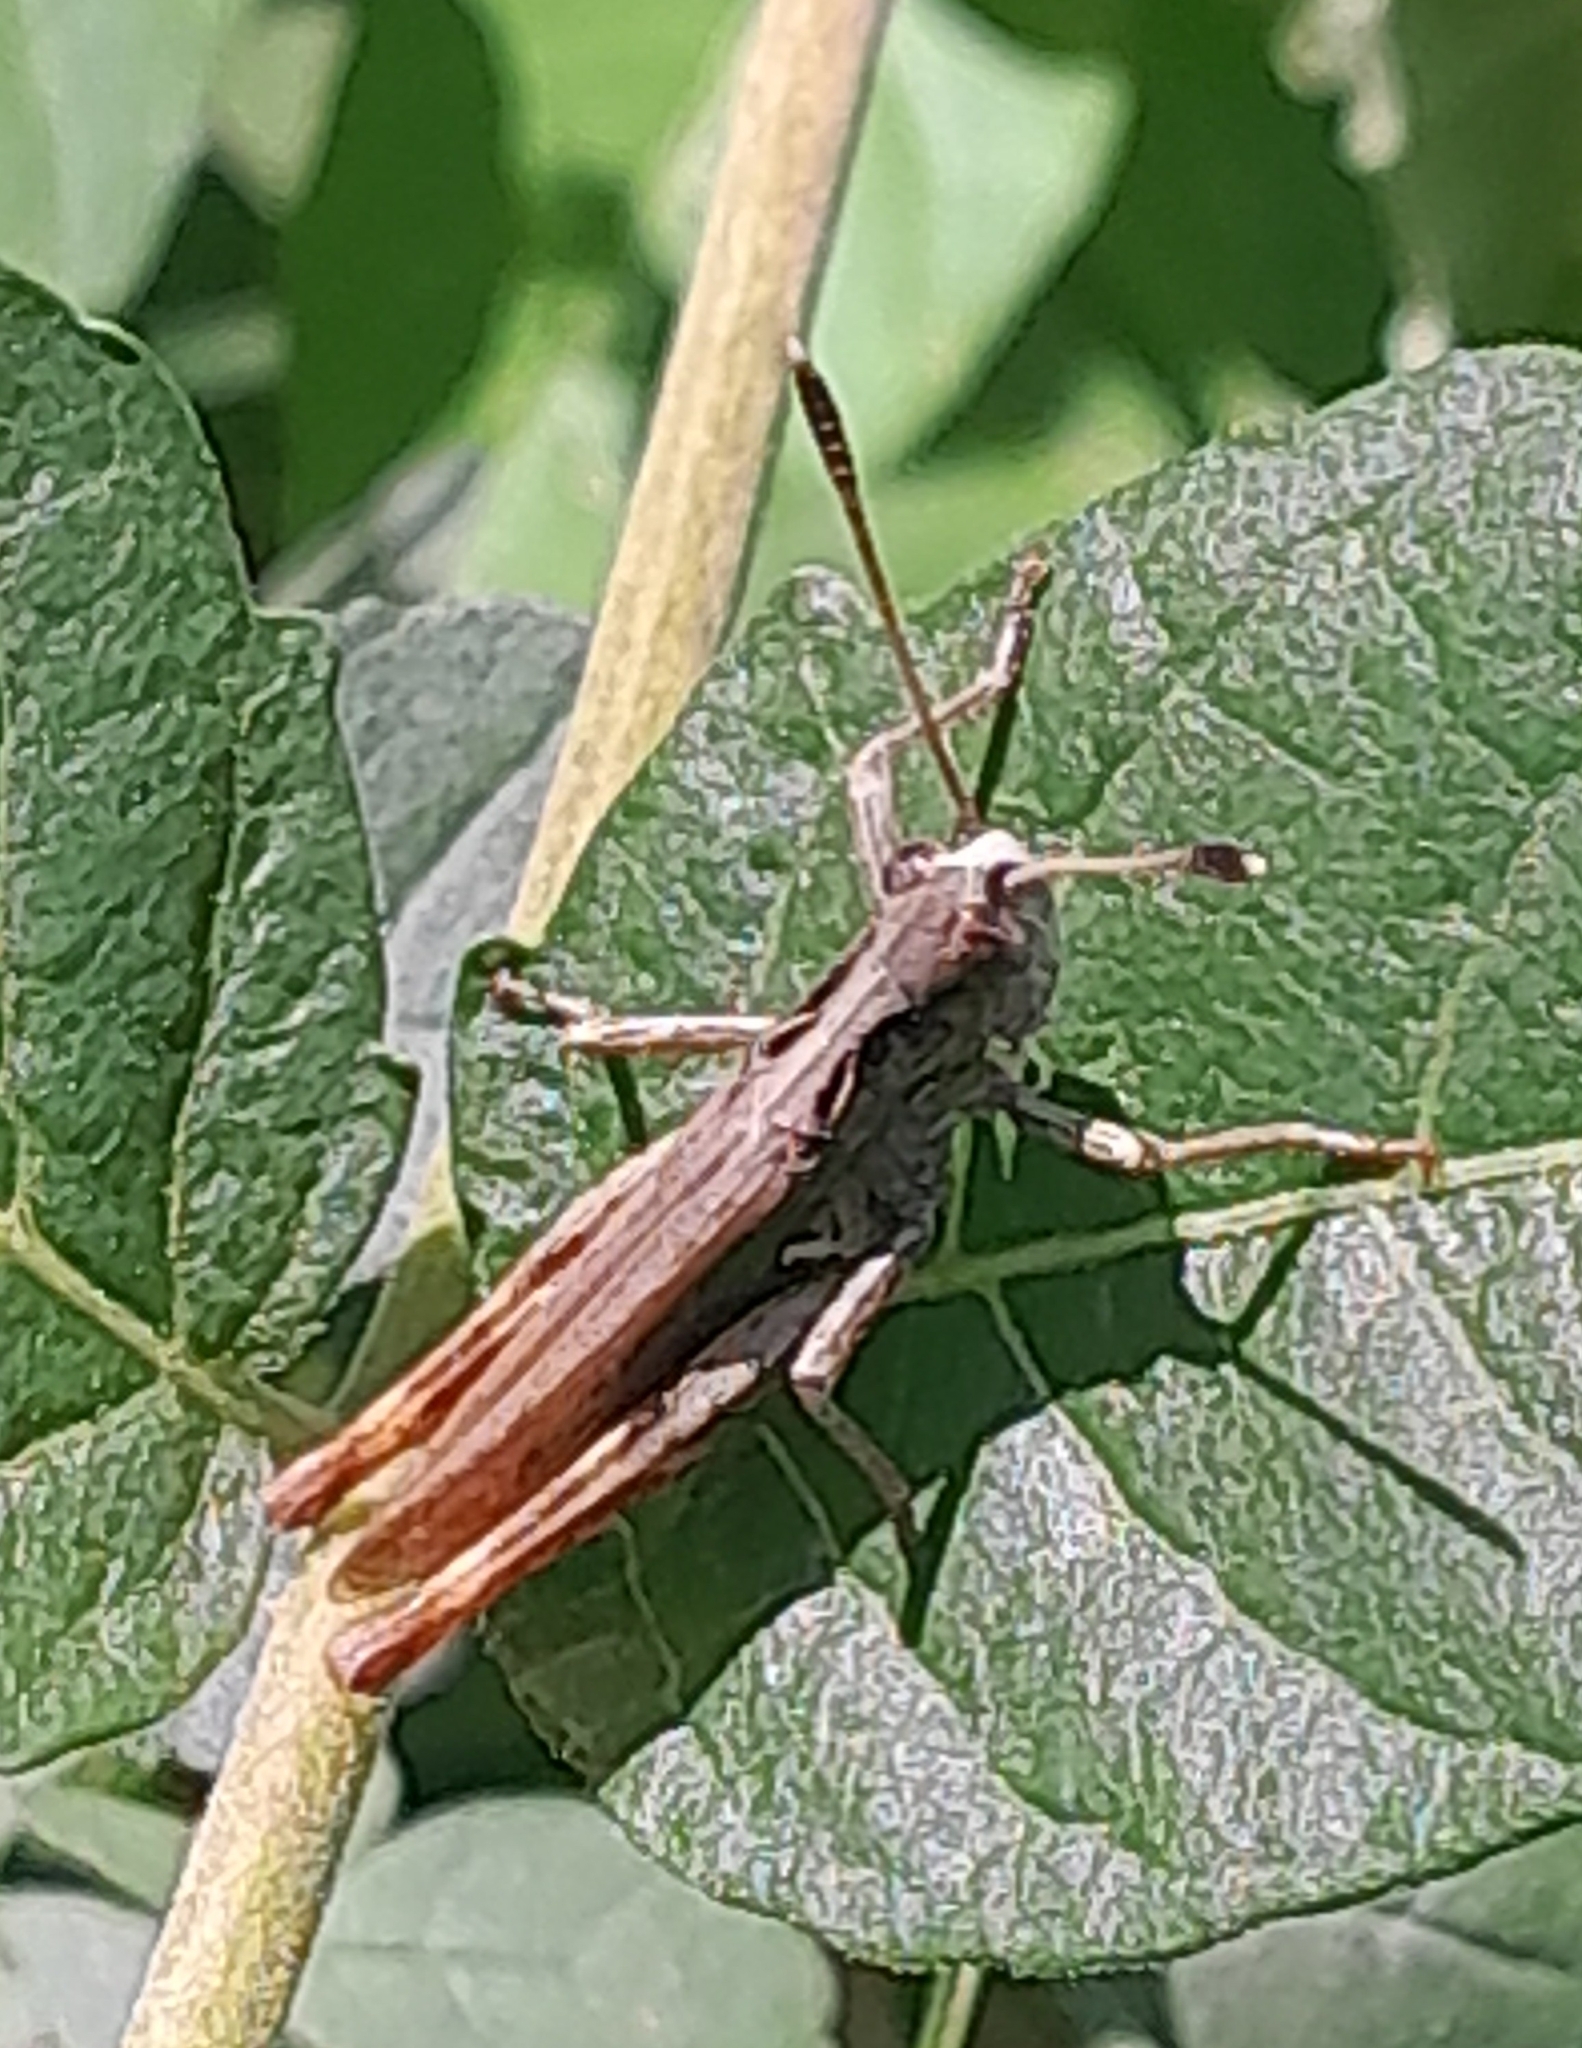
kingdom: Animalia
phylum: Arthropoda
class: Insecta
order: Orthoptera
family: Acrididae
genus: Gomphocerippus
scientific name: Gomphocerippus rufus
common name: Rufous grasshopper
